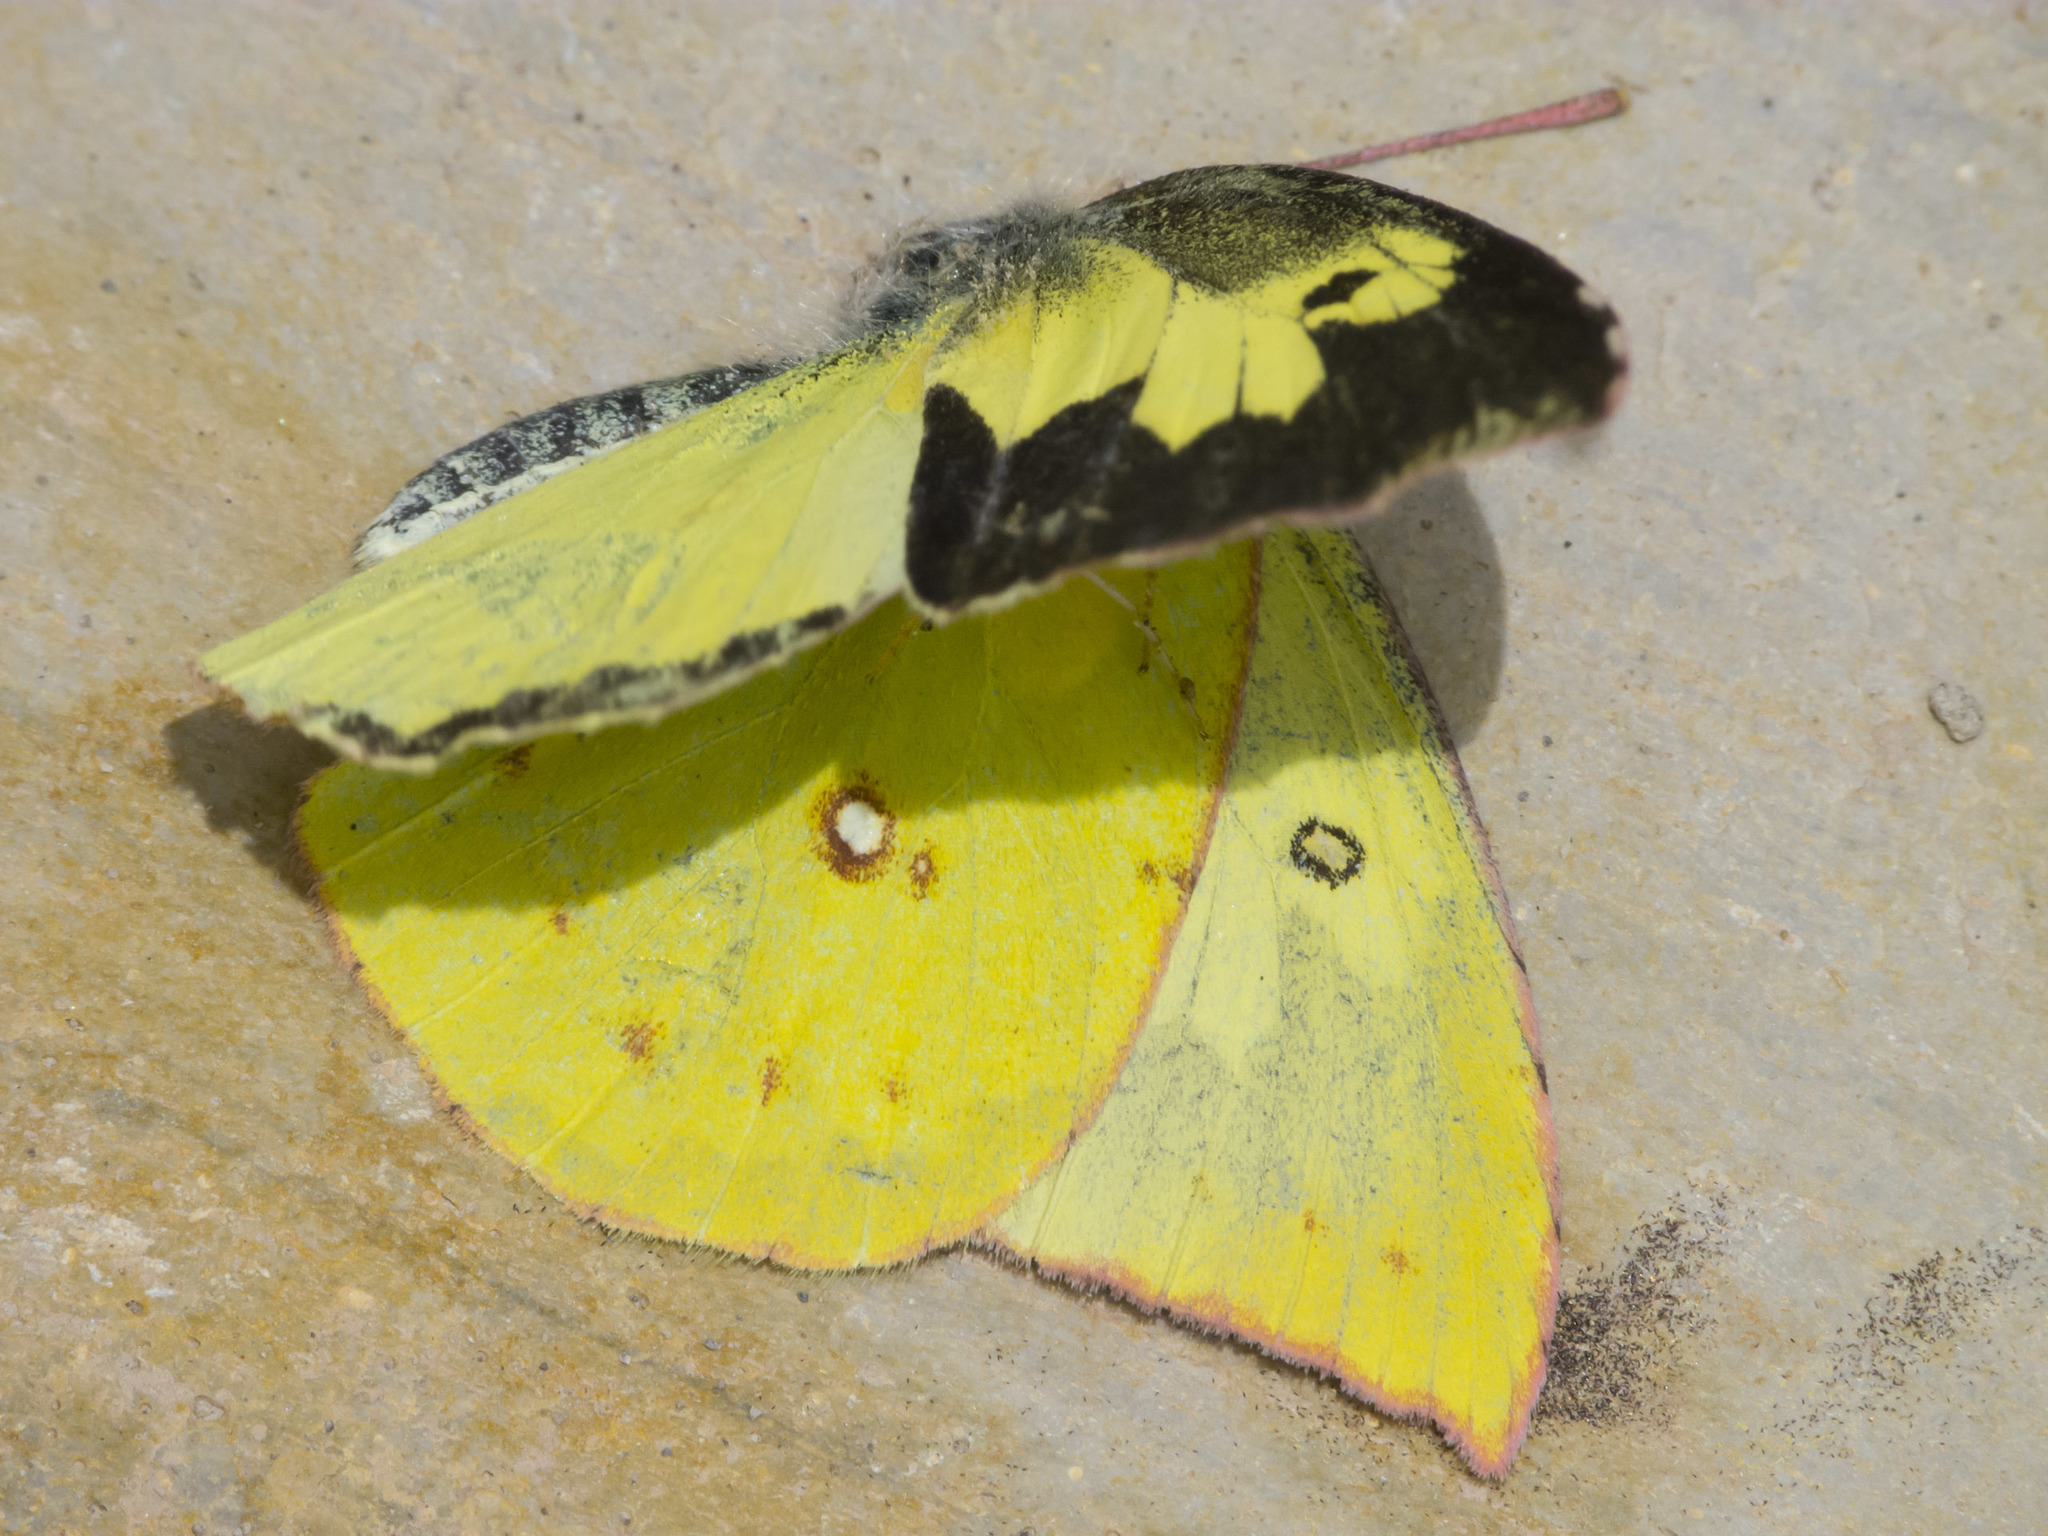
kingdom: Animalia
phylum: Arthropoda
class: Insecta
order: Lepidoptera
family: Pieridae
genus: Zerene
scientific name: Zerene cesonia
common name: Southern dogface
